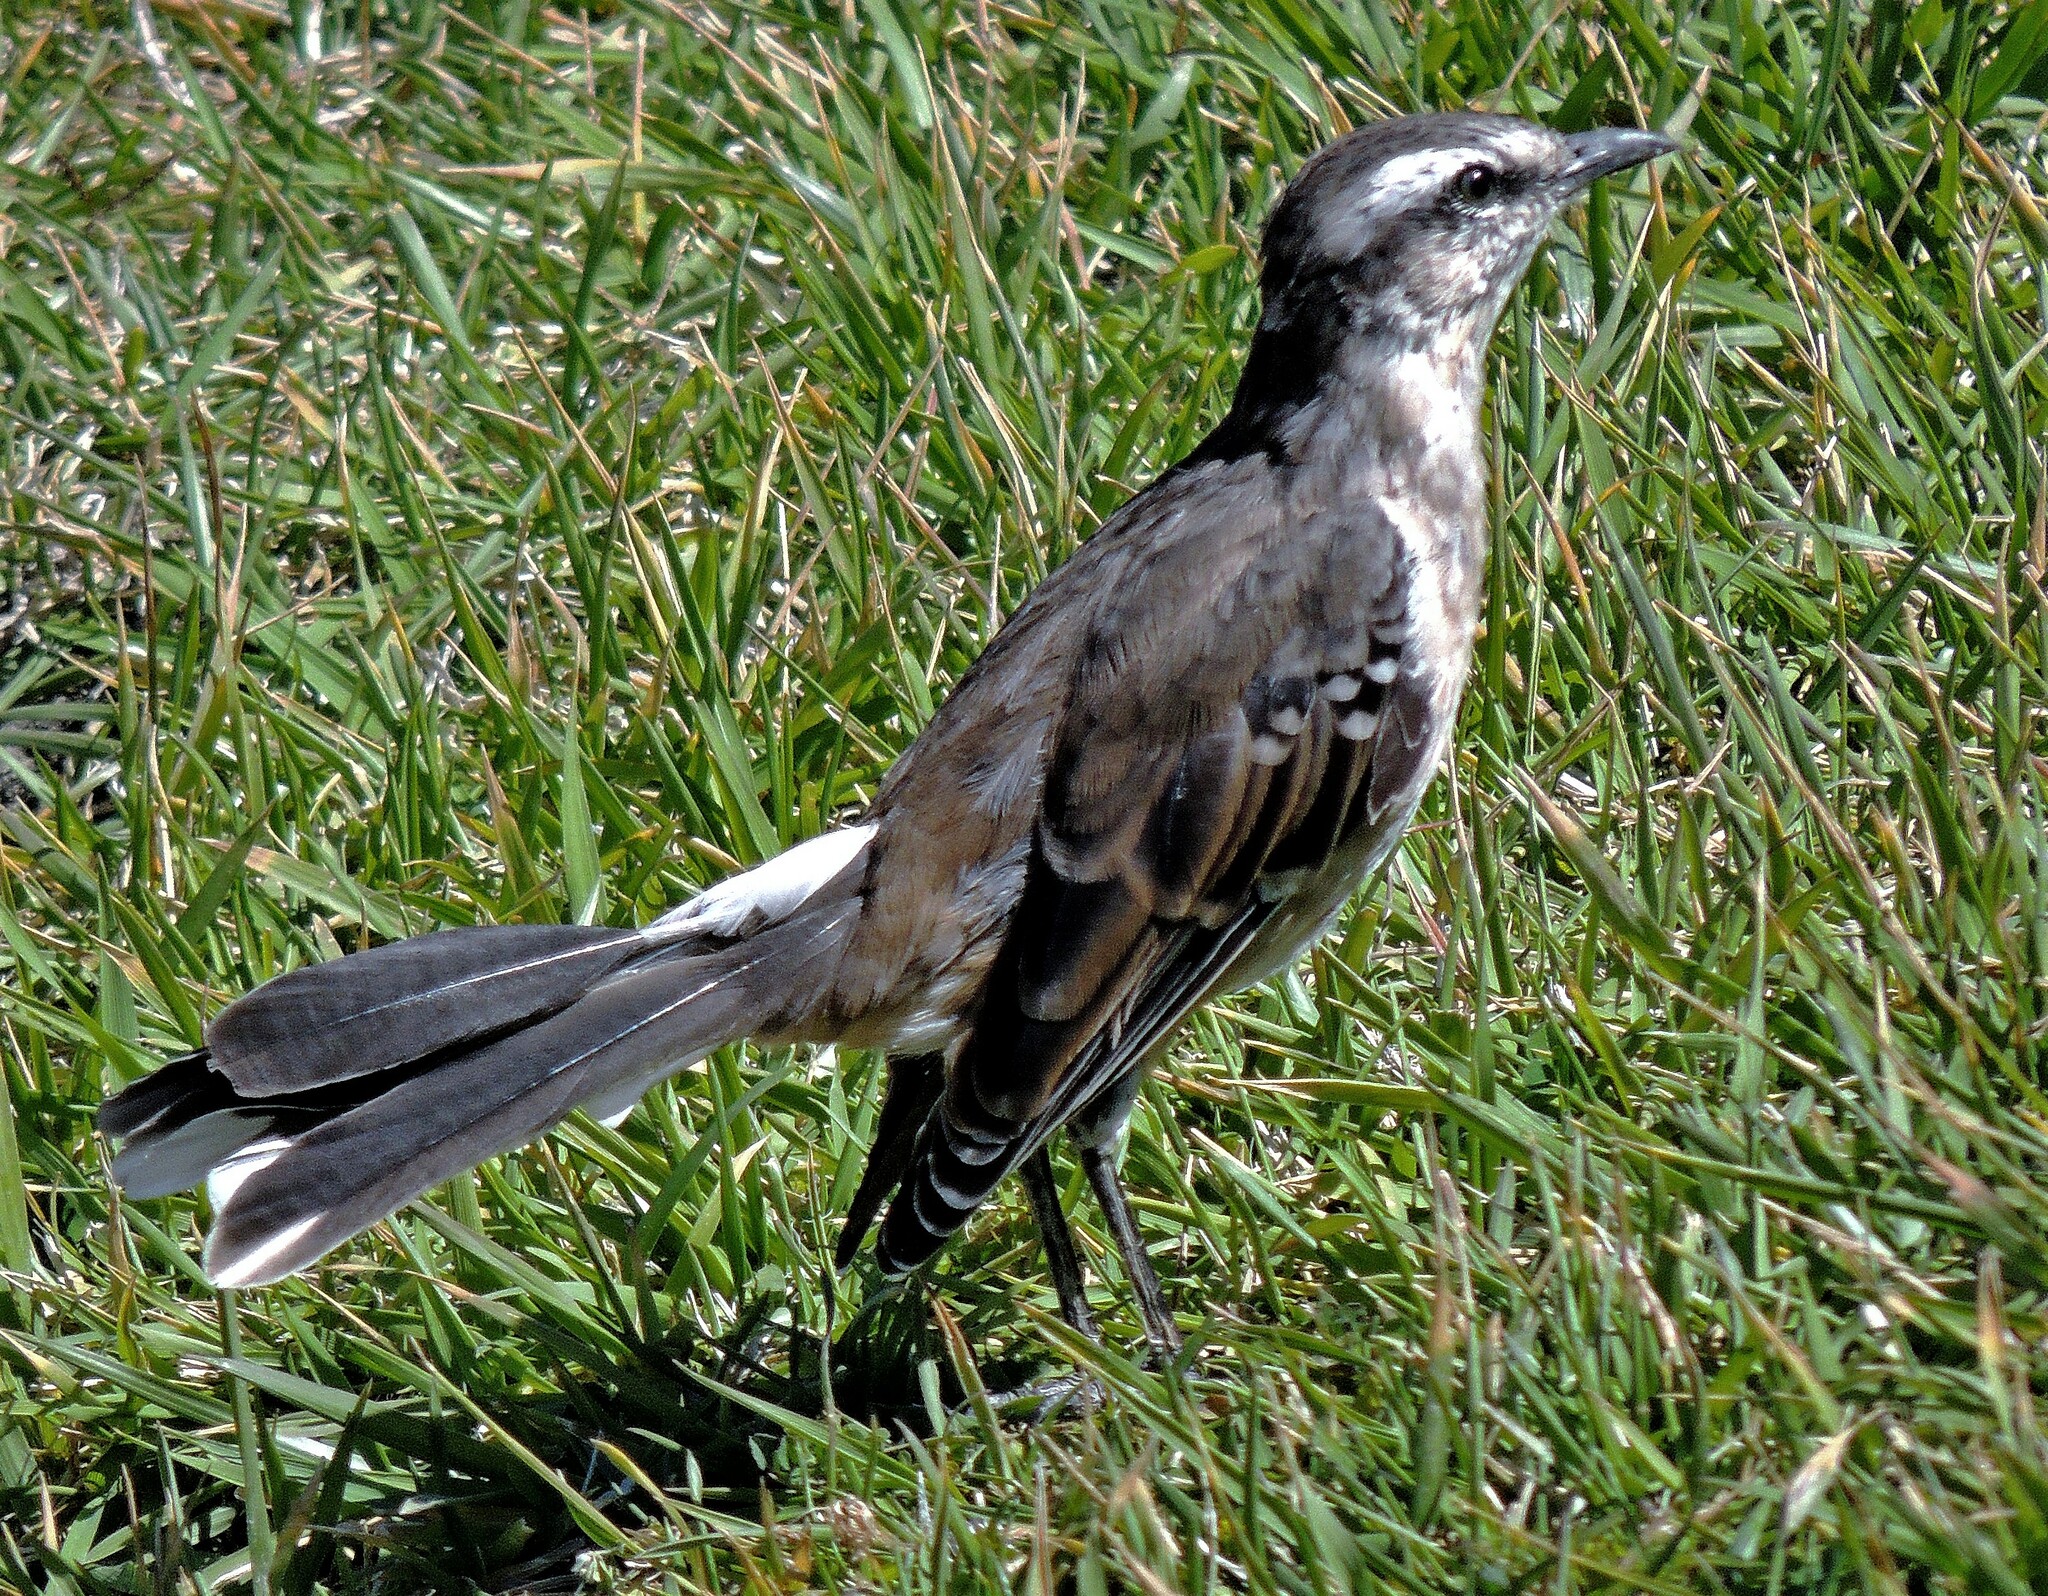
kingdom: Animalia
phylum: Chordata
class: Aves
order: Passeriformes
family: Mimidae
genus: Mimus
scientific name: Mimus saturninus
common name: Chalk-browed mockingbird
